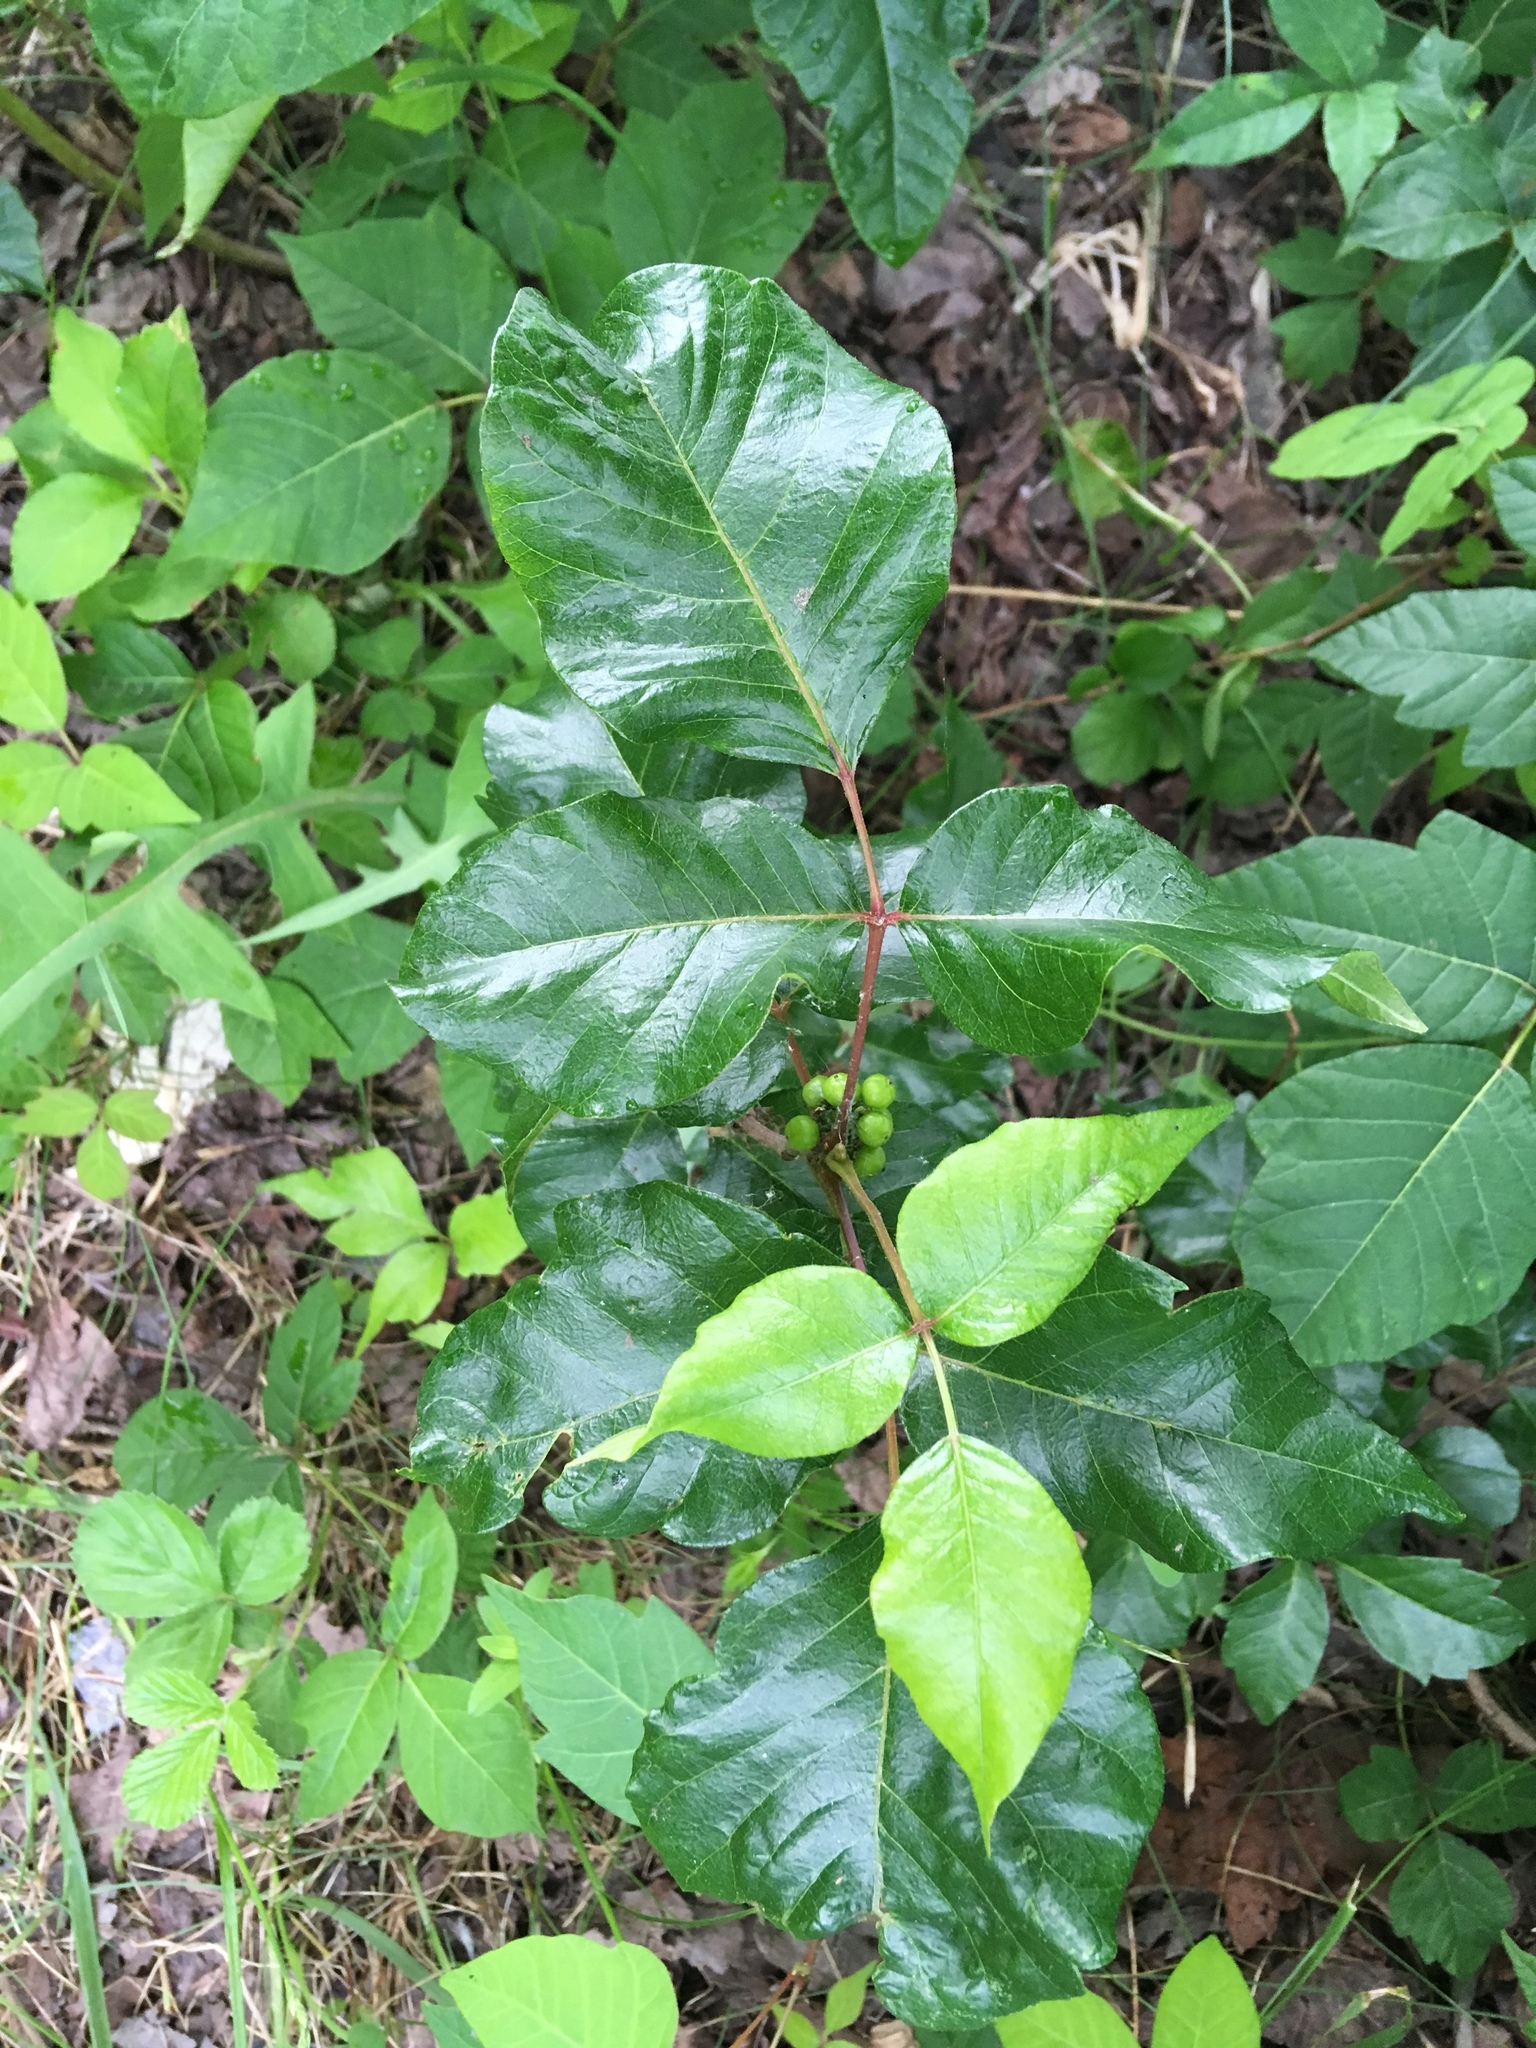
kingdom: Plantae
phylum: Tracheophyta
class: Magnoliopsida
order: Sapindales
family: Anacardiaceae
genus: Toxicodendron
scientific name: Toxicodendron radicans
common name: Poison ivy
